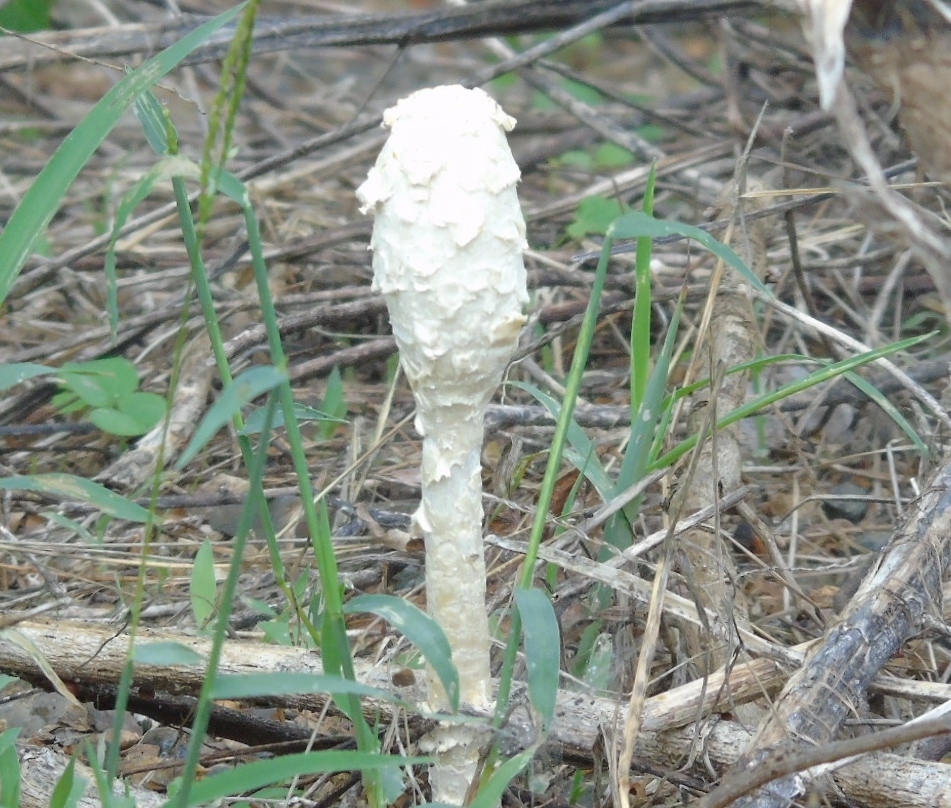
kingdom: Fungi
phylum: Basidiomycota
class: Agaricomycetes
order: Agaricales
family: Agaricaceae
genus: Podaxis
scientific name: Podaxis
